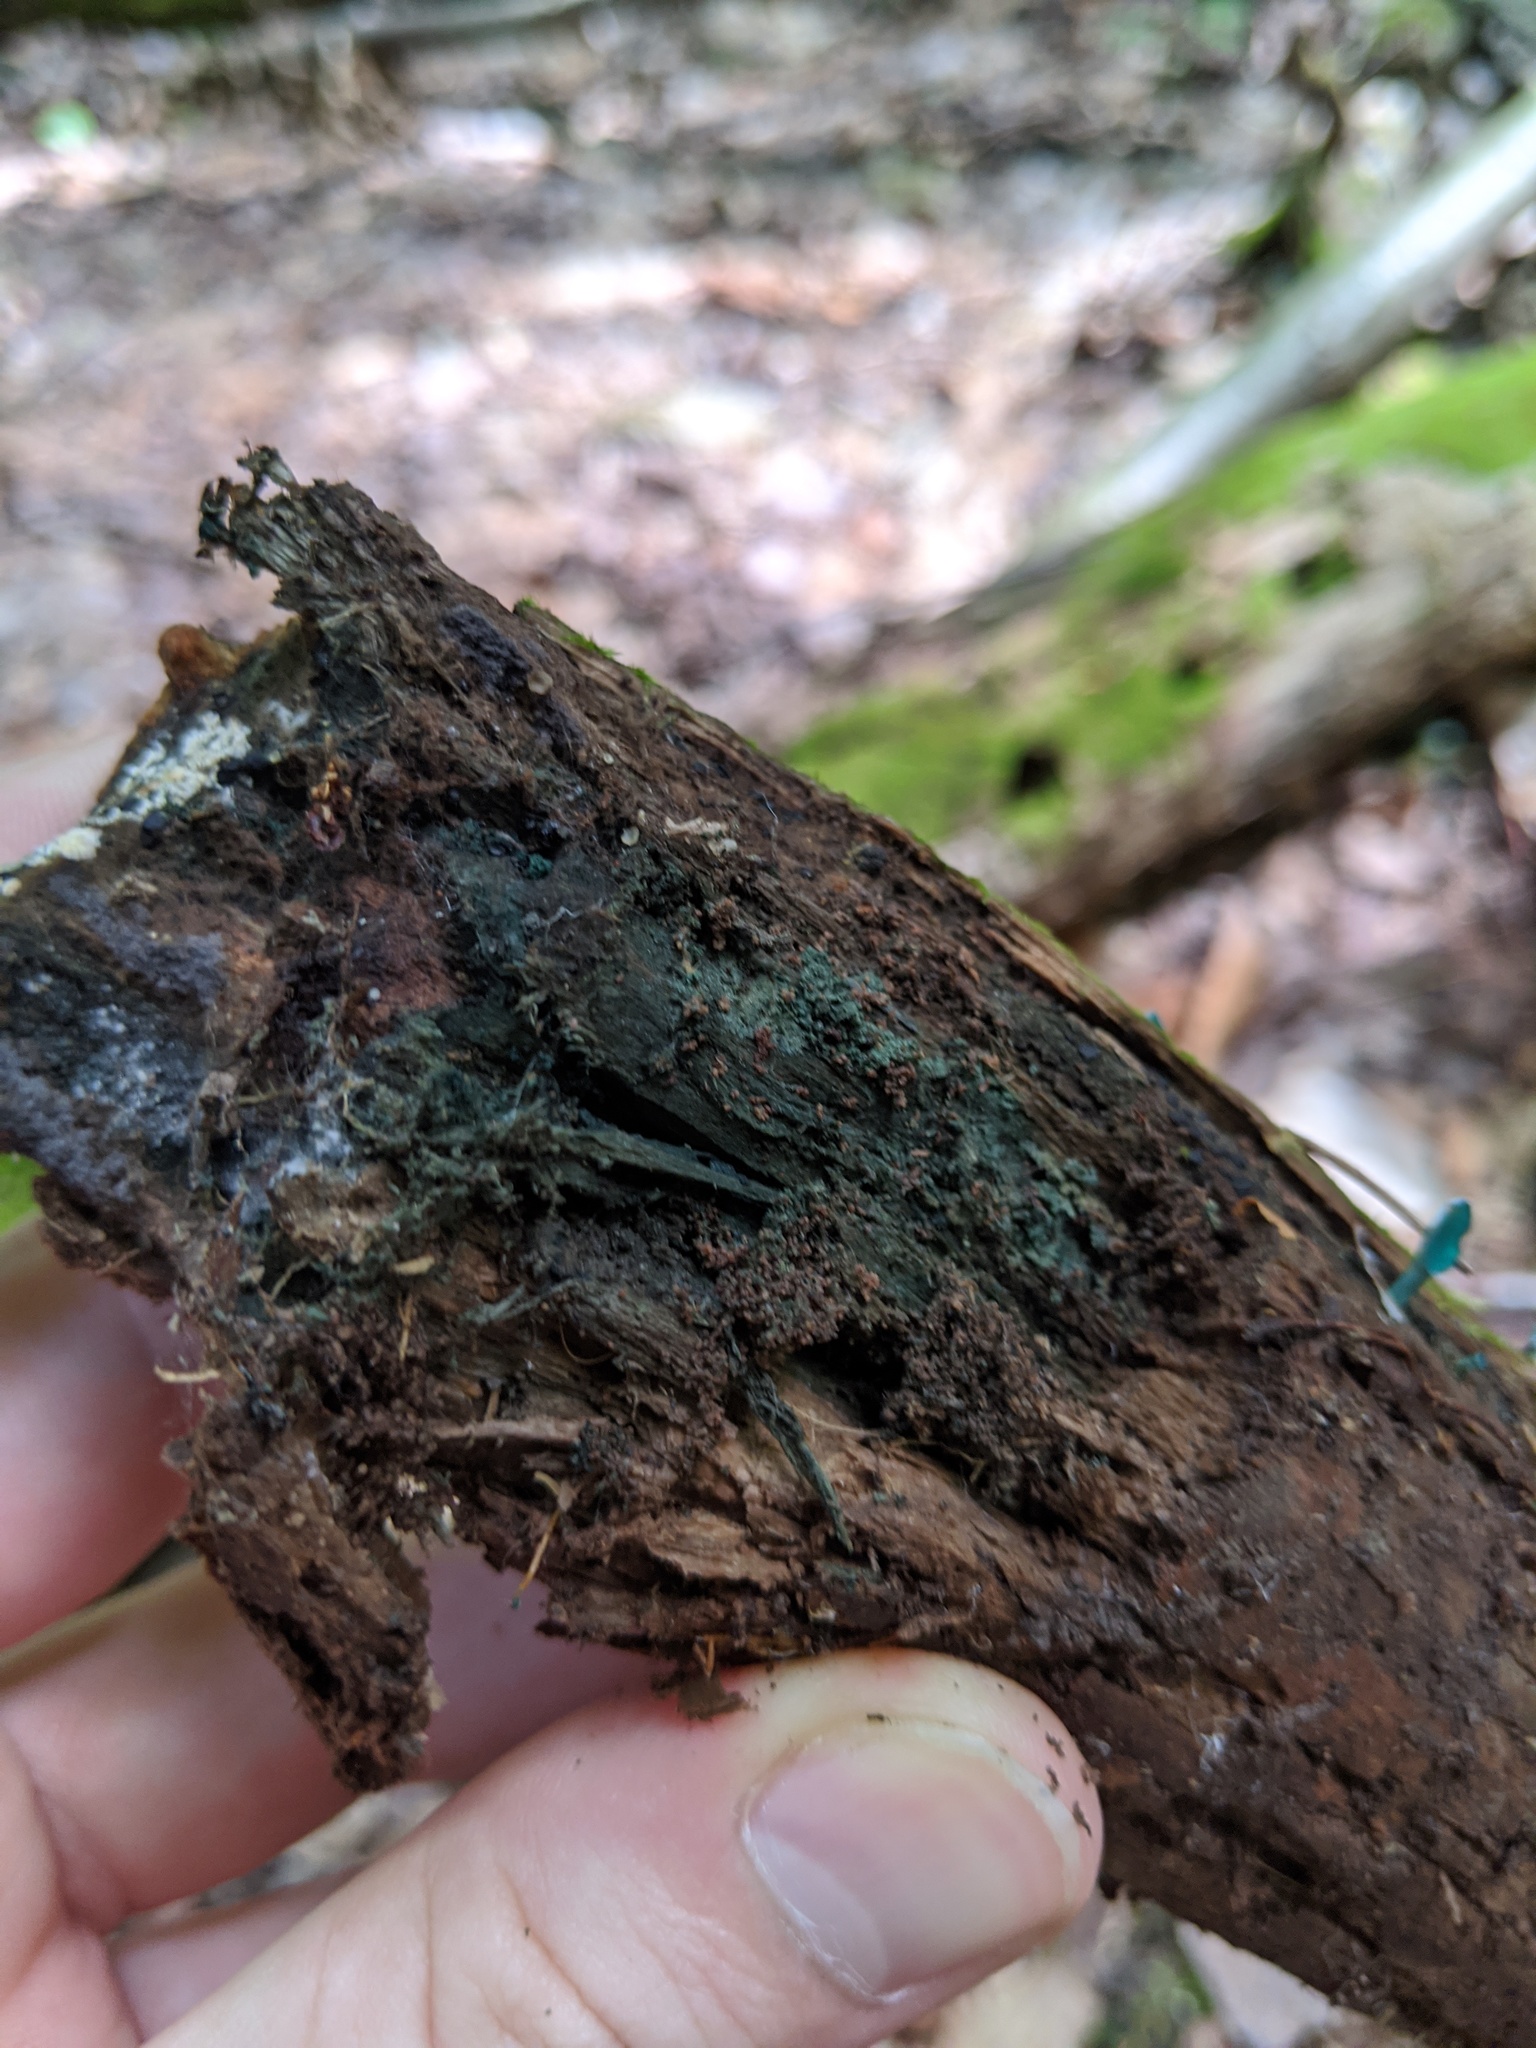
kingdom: Fungi
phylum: Ascomycota
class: Leotiomycetes
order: Helotiales
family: Chlorociboriaceae
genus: Chlorociboria
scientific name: Chlorociboria aeruginascens
